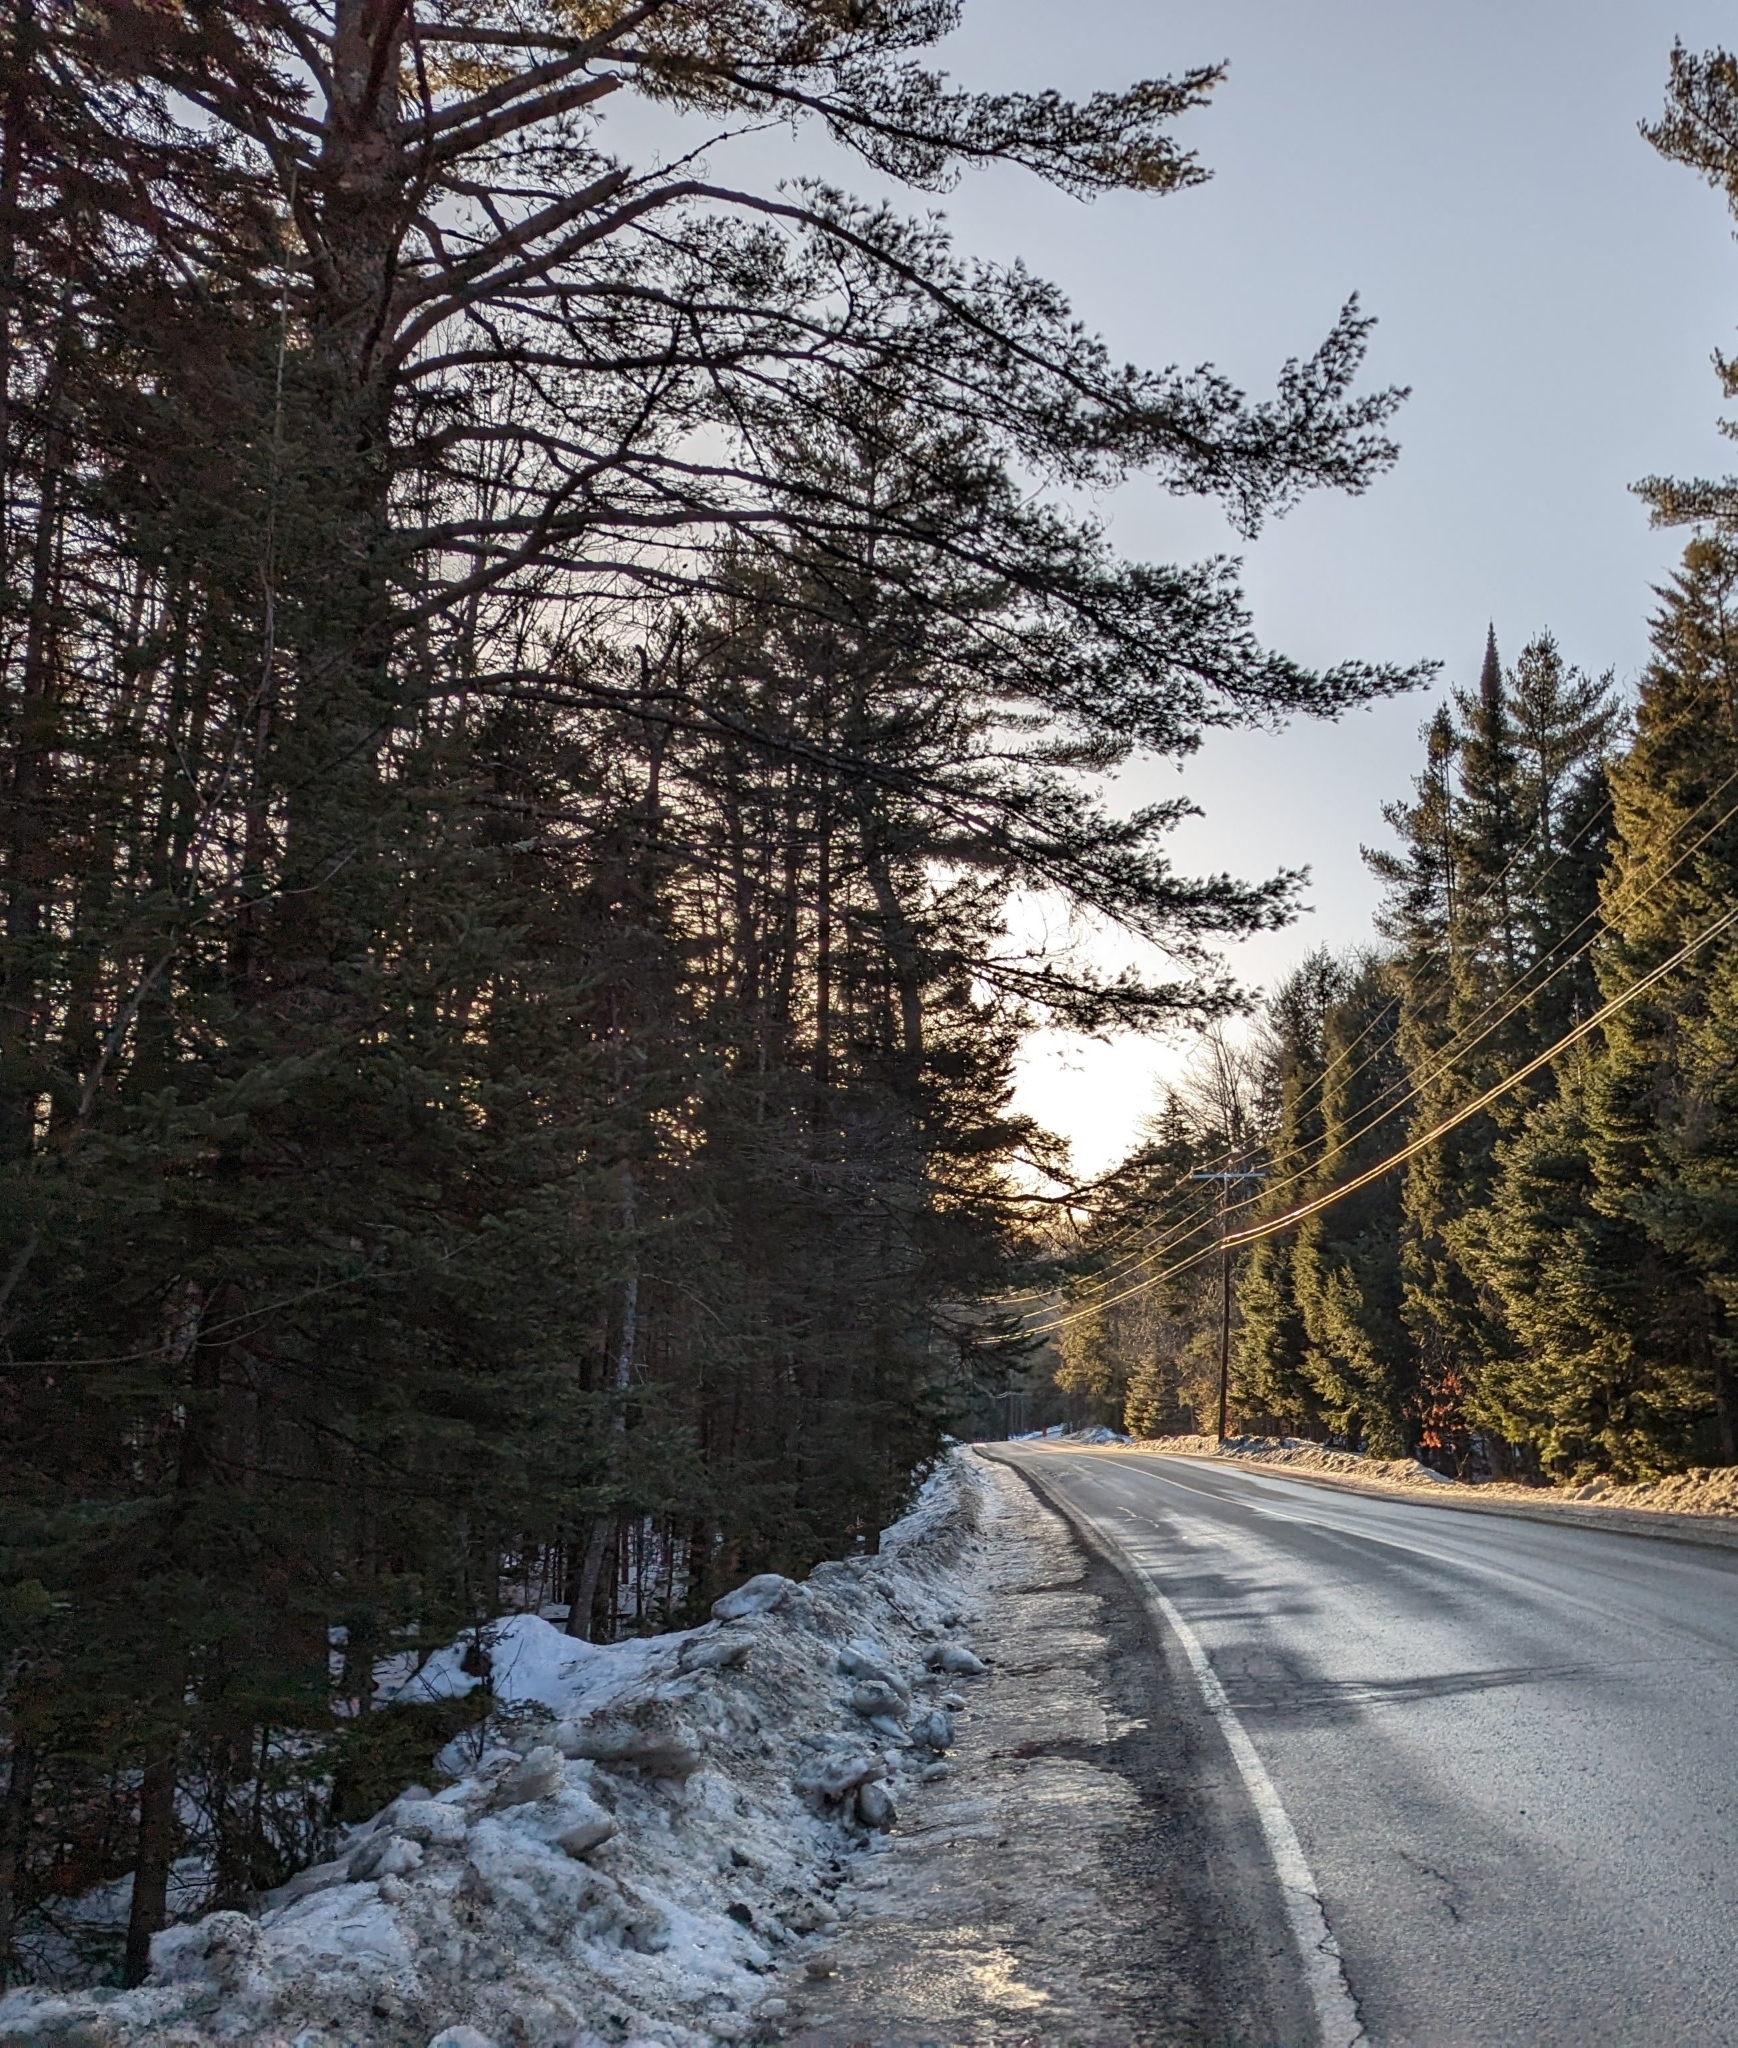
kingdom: Plantae
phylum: Tracheophyta
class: Pinopsida
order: Pinales
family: Pinaceae
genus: Pinus
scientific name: Pinus strobus
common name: Weymouth pine
